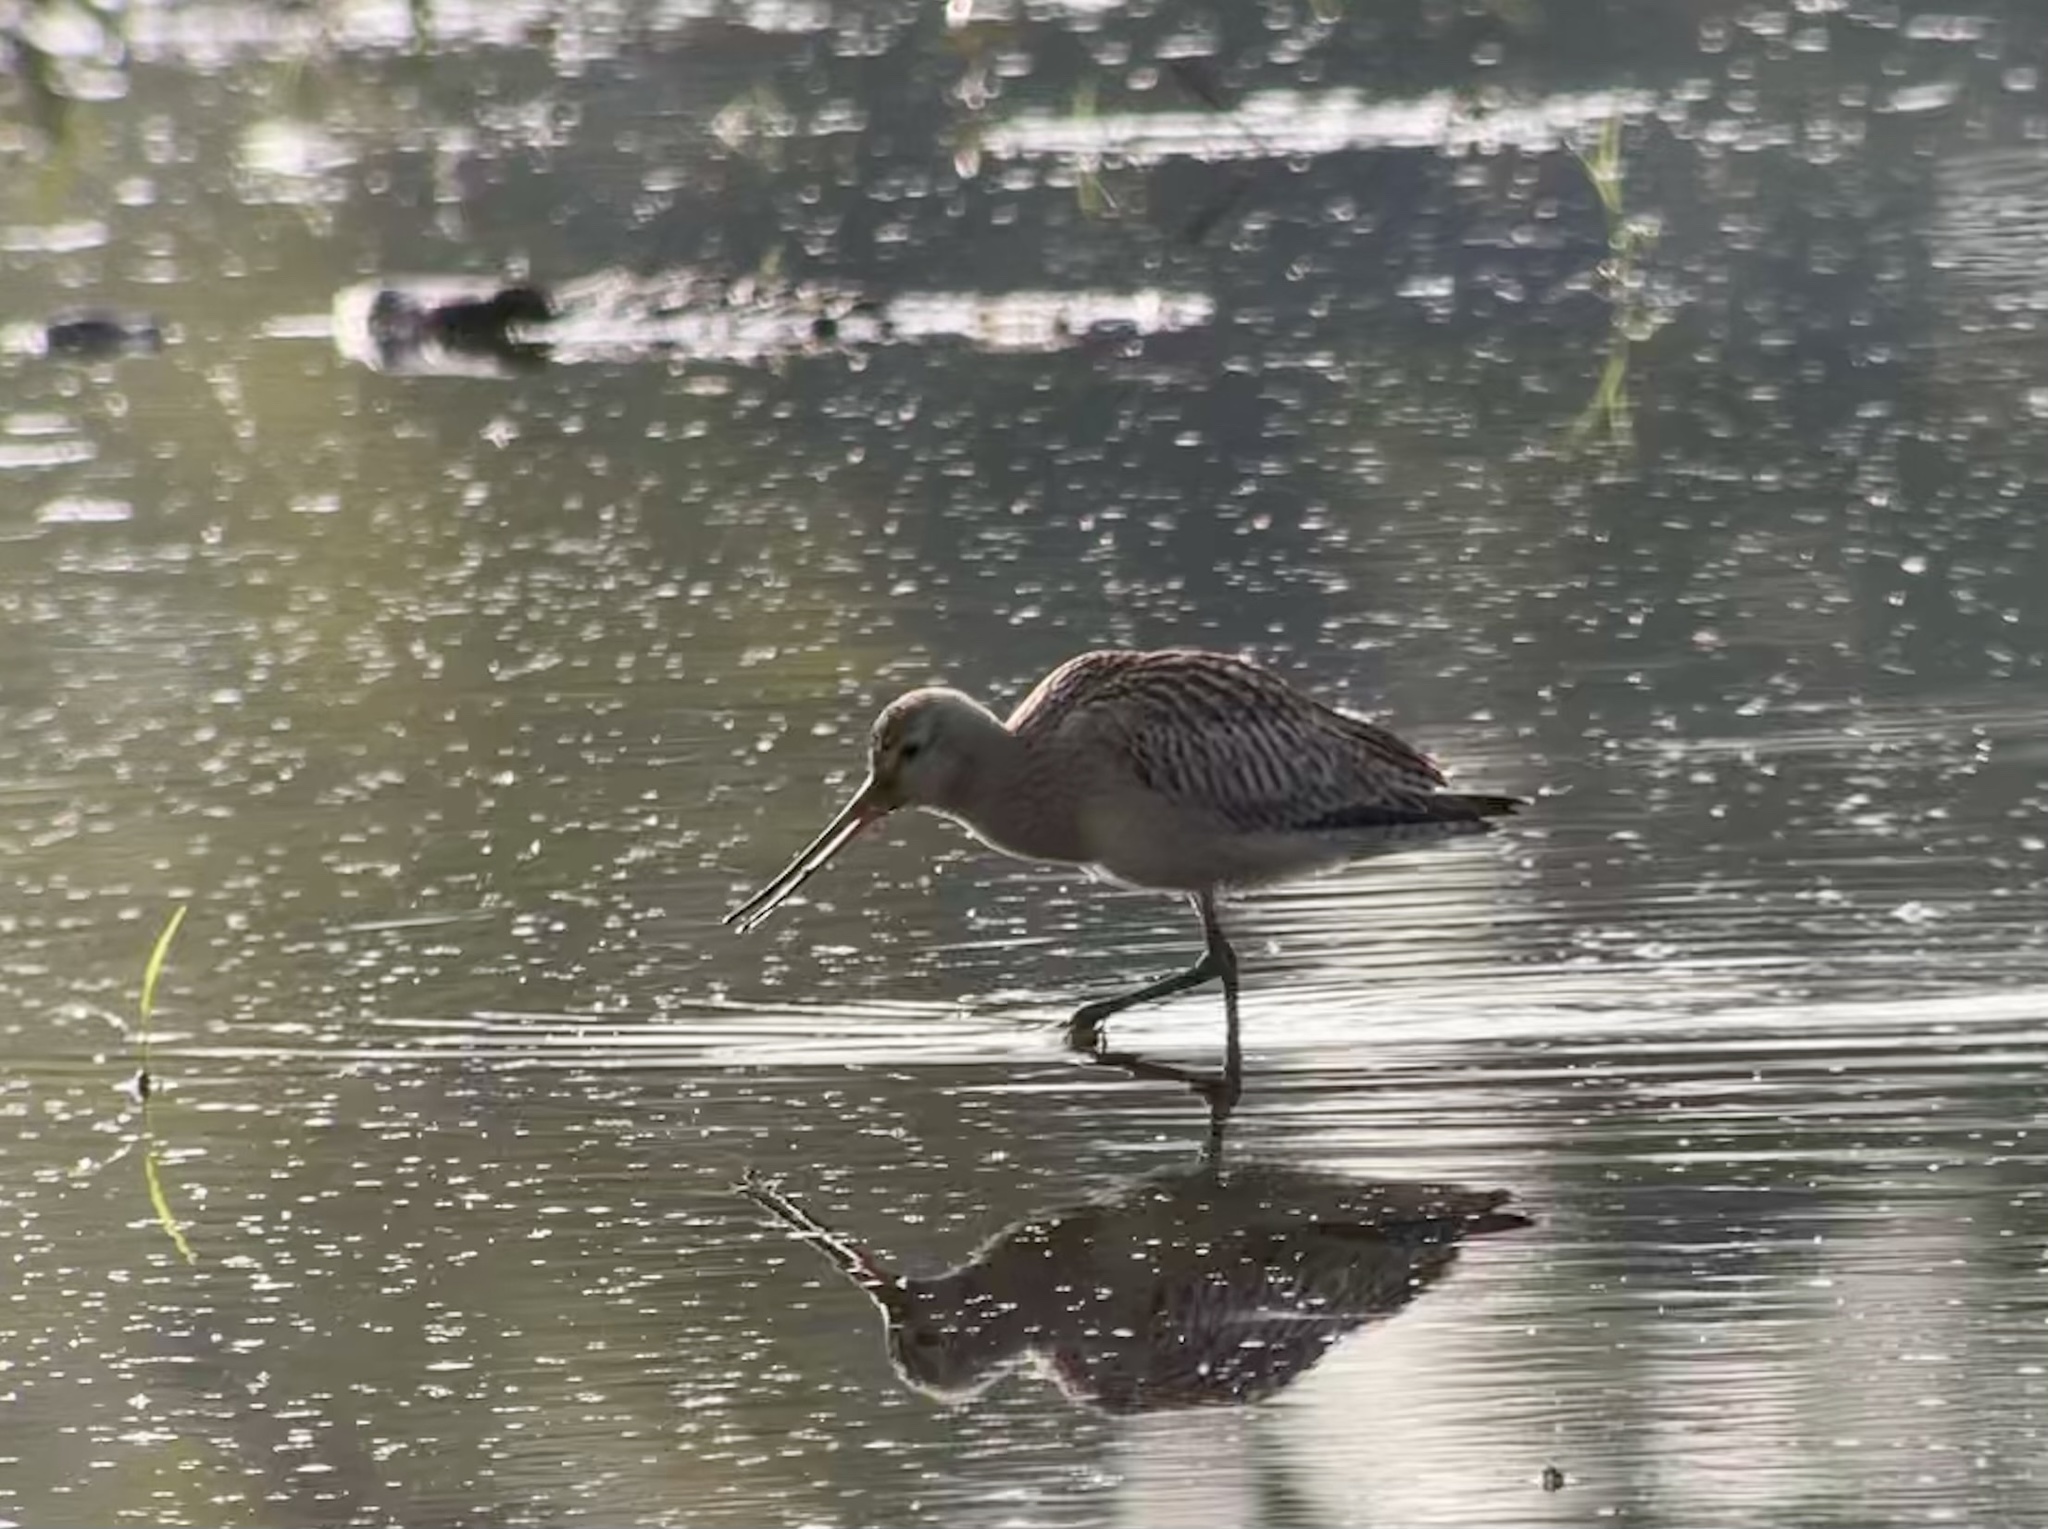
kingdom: Animalia
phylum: Chordata
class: Aves
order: Charadriiformes
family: Scolopacidae
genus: Limosa
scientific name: Limosa lapponica
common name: Bar-tailed godwit
